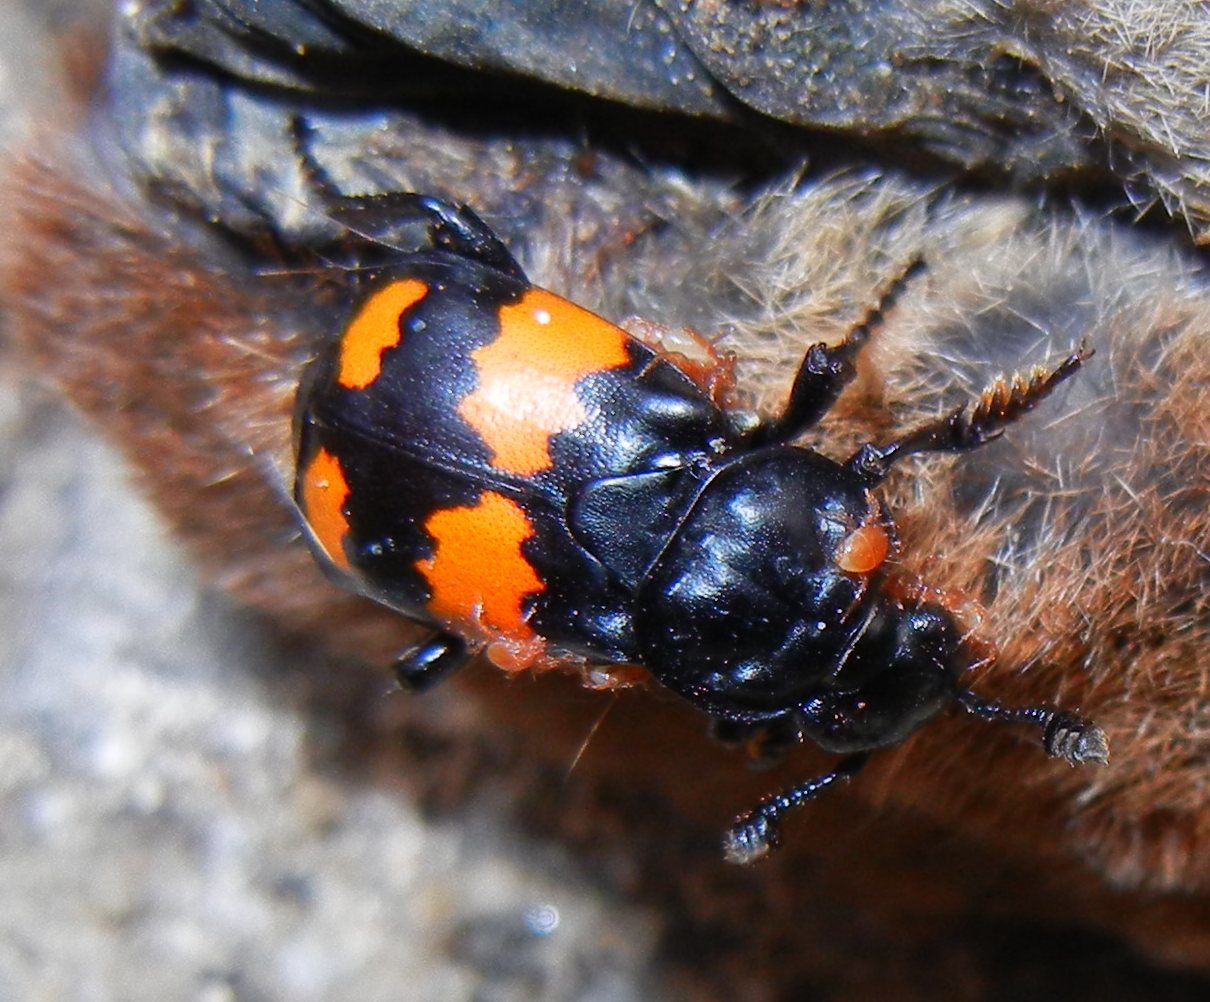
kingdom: Animalia
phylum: Arthropoda
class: Insecta
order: Coleoptera
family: Staphylinidae
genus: Nicrophorus
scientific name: Nicrophorus vespilloides
